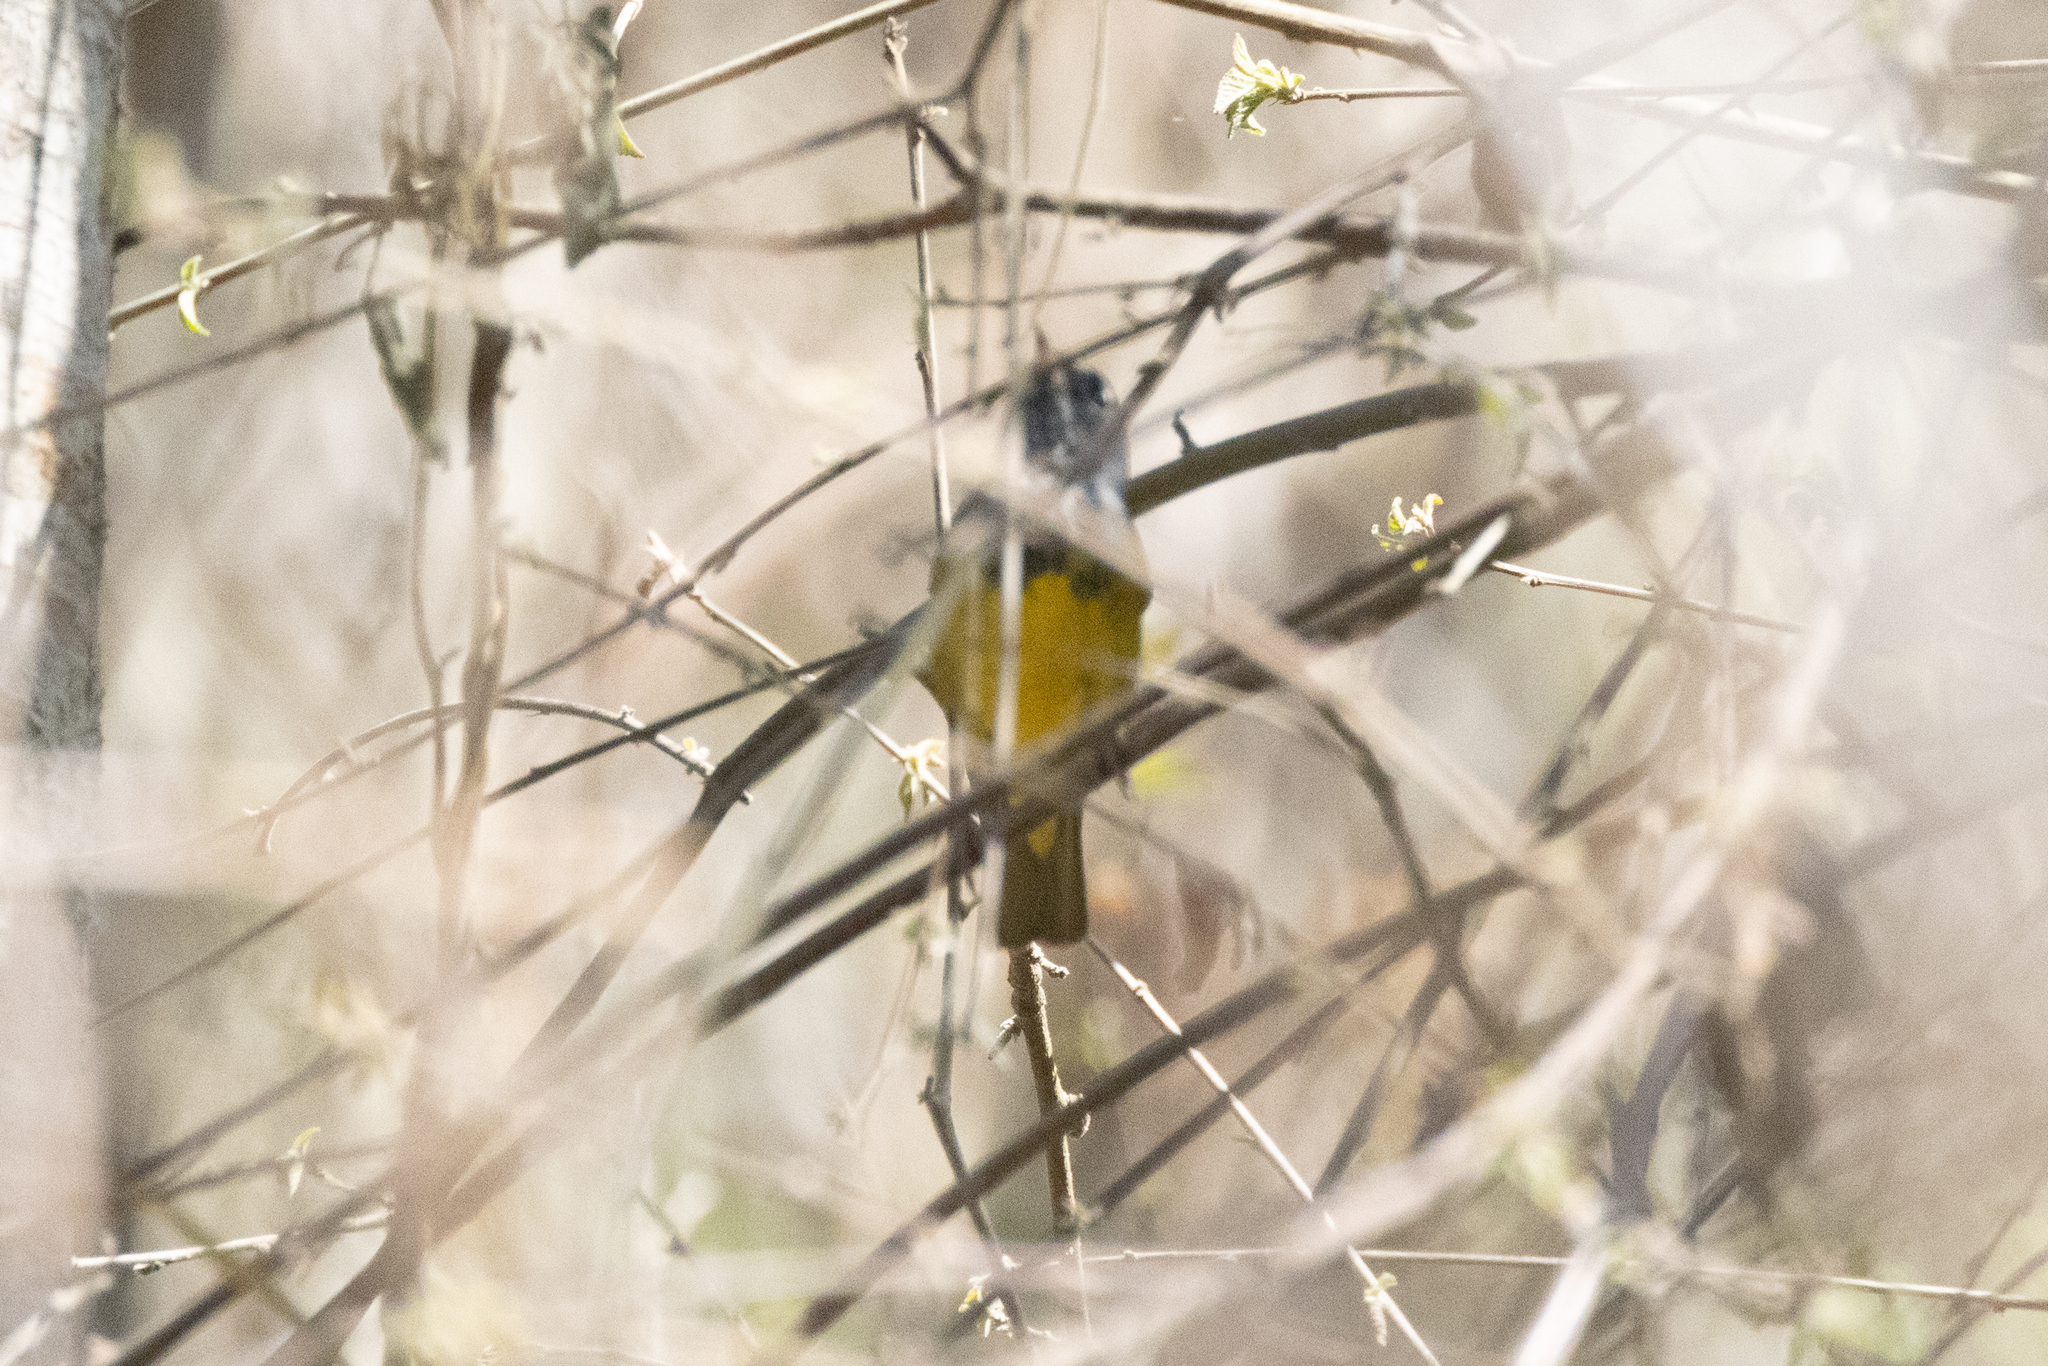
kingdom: Animalia
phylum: Chordata
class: Aves
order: Passeriformes
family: Parulidae
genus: Geothlypis
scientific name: Geothlypis tolmiei
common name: Macgillivray's warbler
